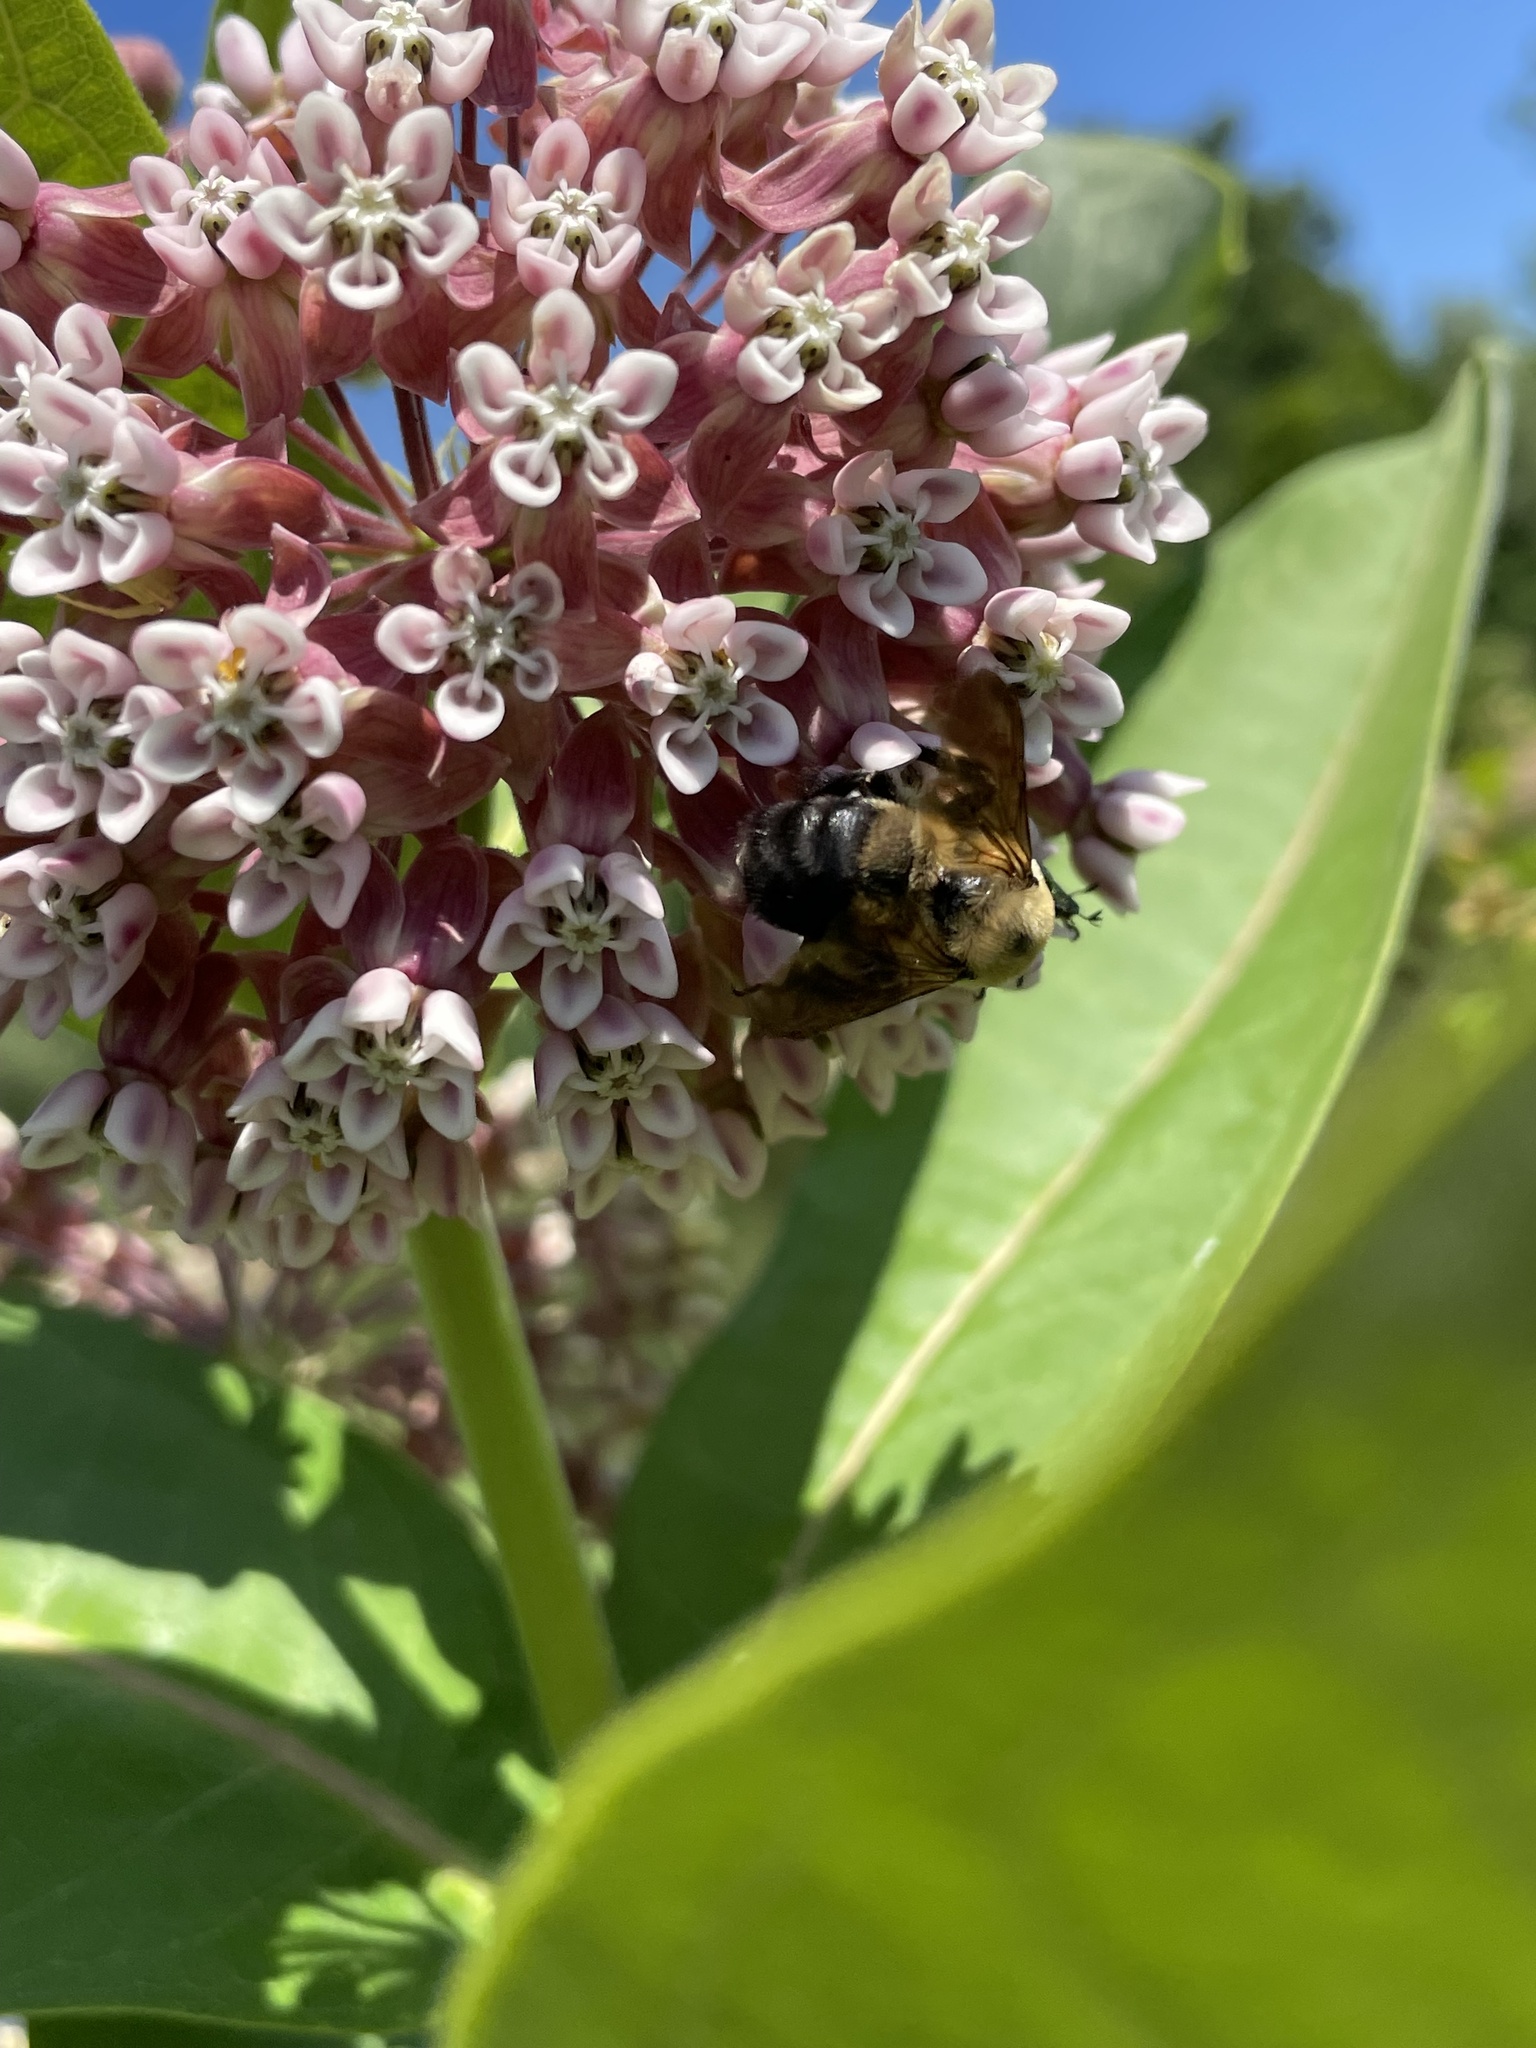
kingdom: Animalia
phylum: Arthropoda
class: Insecta
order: Hymenoptera
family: Apidae
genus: Bombus
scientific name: Bombus griseocollis
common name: Brown-belted bumble bee
